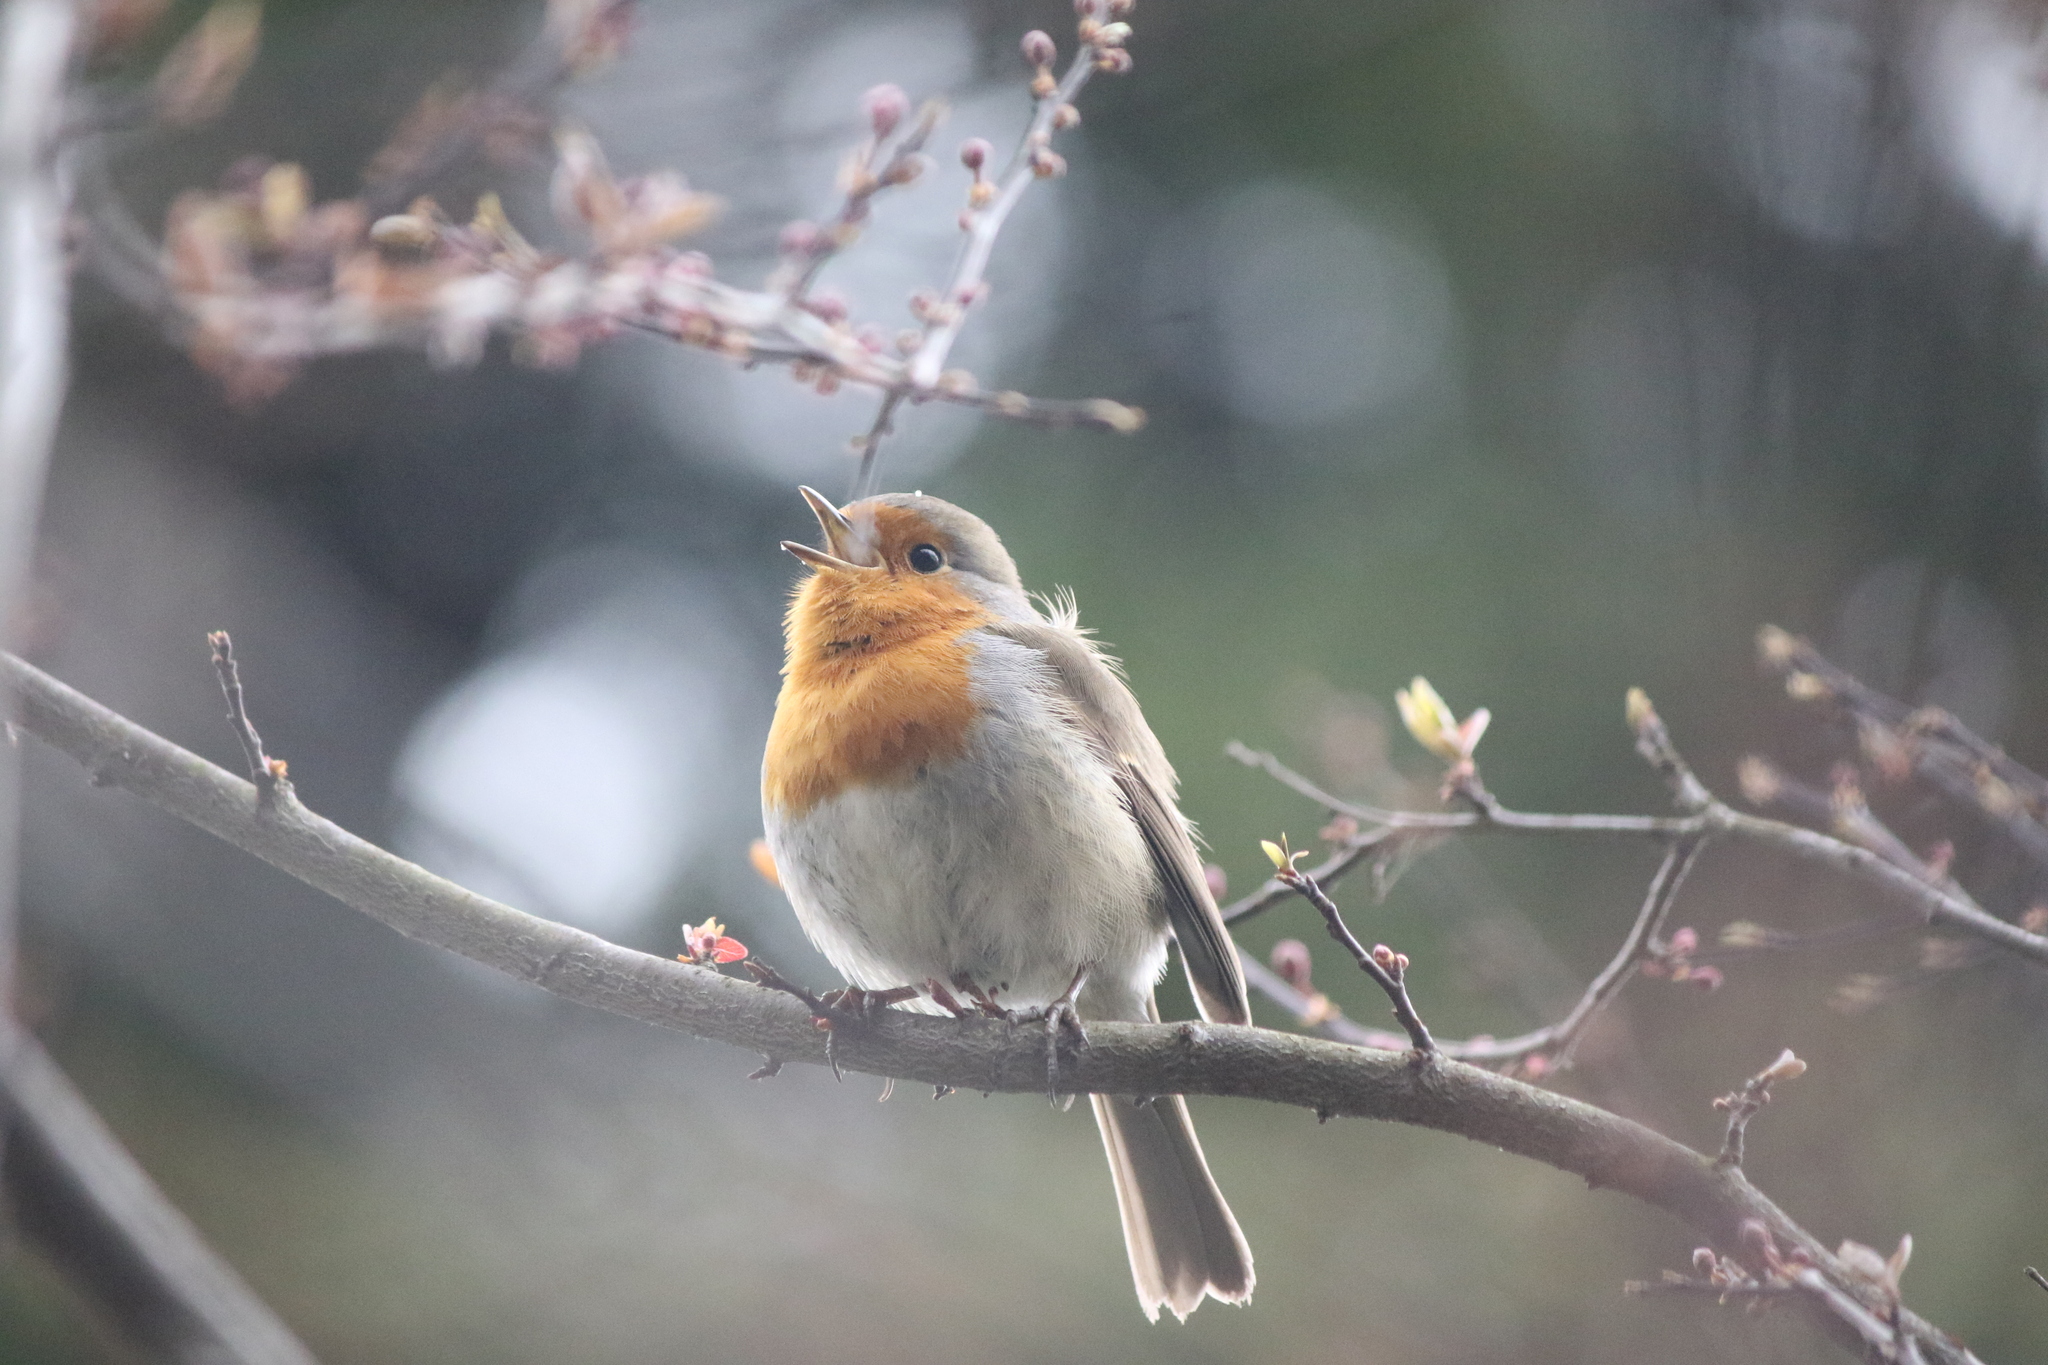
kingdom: Animalia
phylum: Chordata
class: Aves
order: Passeriformes
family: Muscicapidae
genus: Erithacus
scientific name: Erithacus rubecula
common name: European robin
